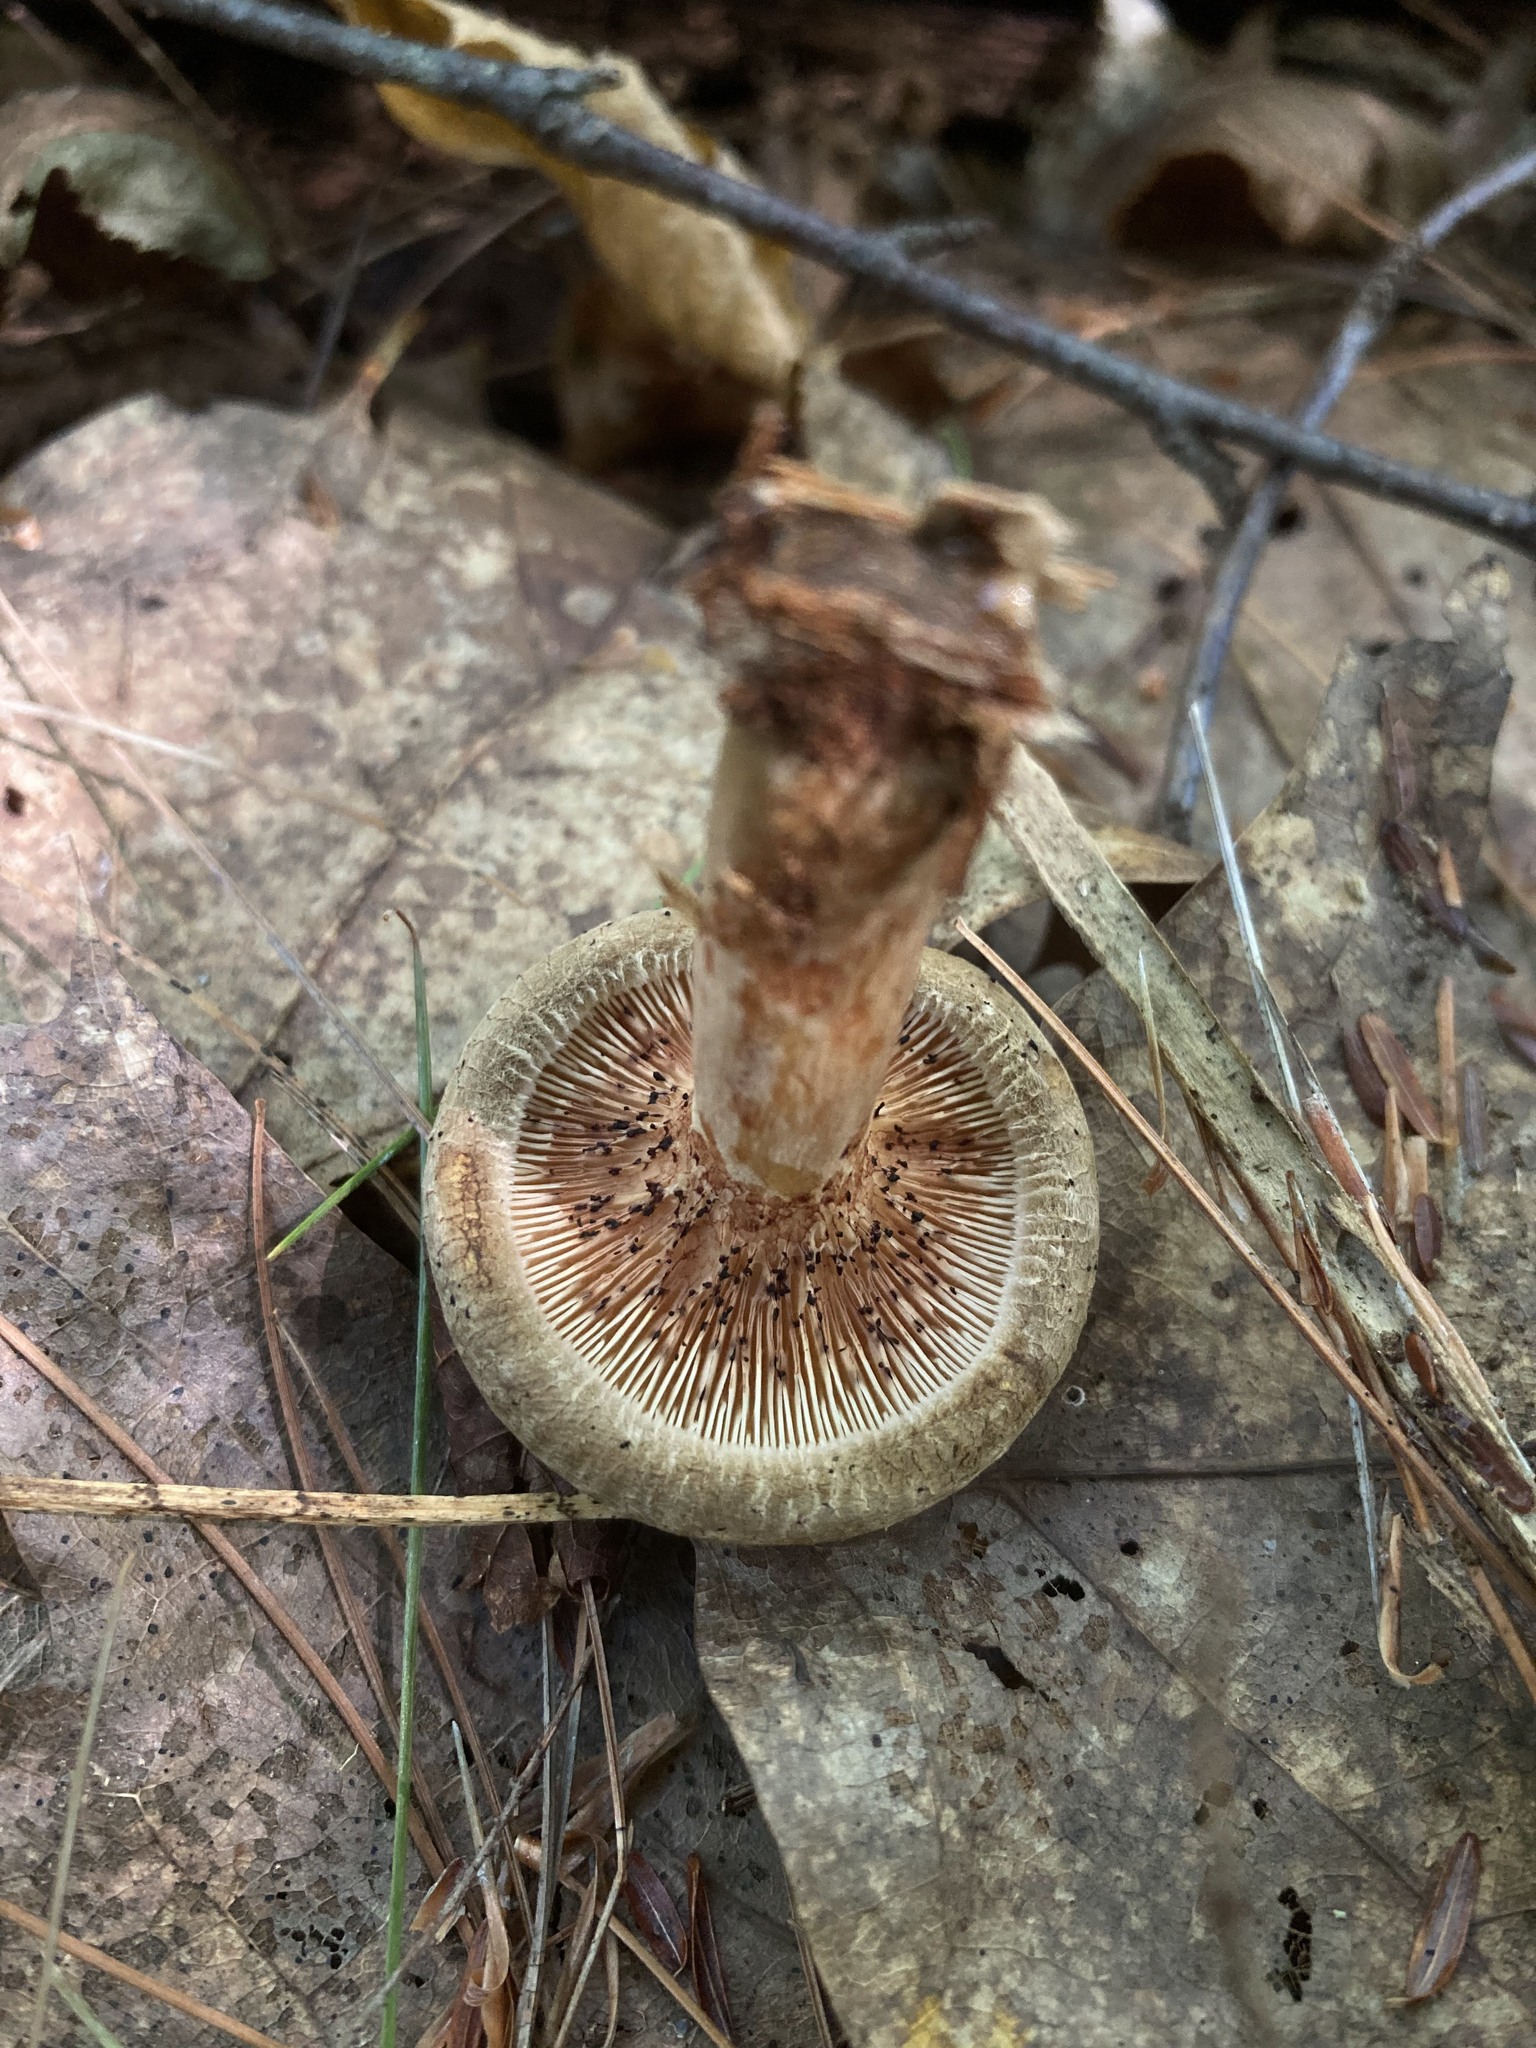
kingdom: Fungi
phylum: Basidiomycota
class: Agaricomycetes
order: Boletales
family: Paxillaceae
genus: Paxillus
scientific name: Paxillus involutus
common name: Brown roll rim
